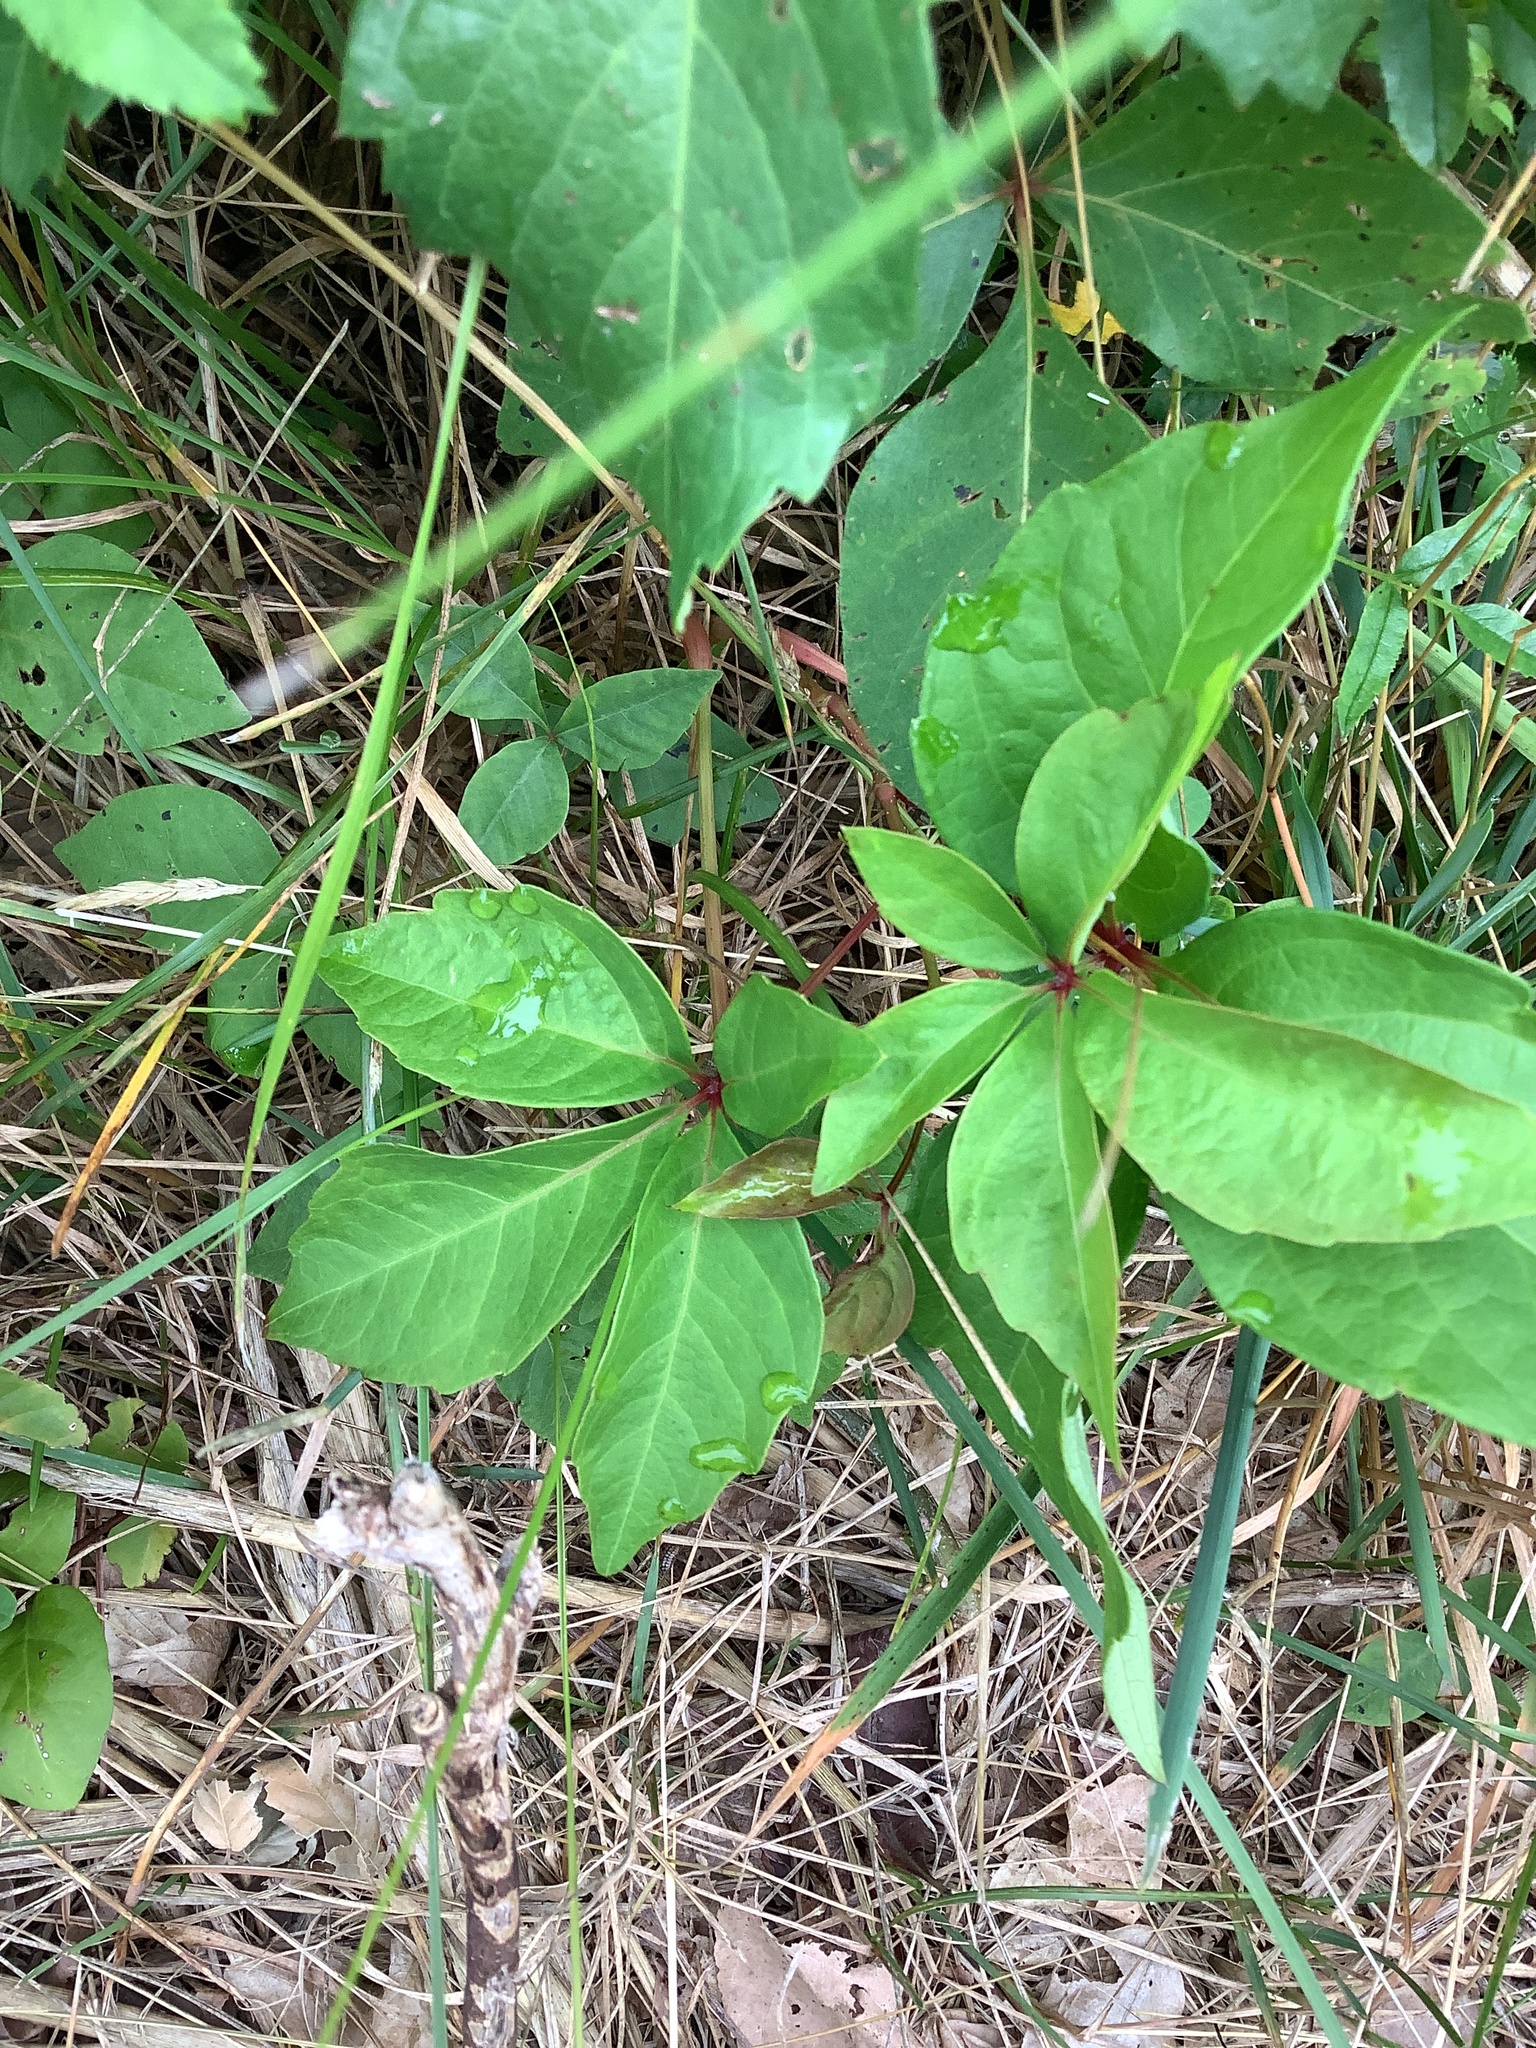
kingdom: Plantae
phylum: Tracheophyta
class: Magnoliopsida
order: Vitales
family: Vitaceae
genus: Parthenocissus
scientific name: Parthenocissus quinquefolia
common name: Virginia-creeper
